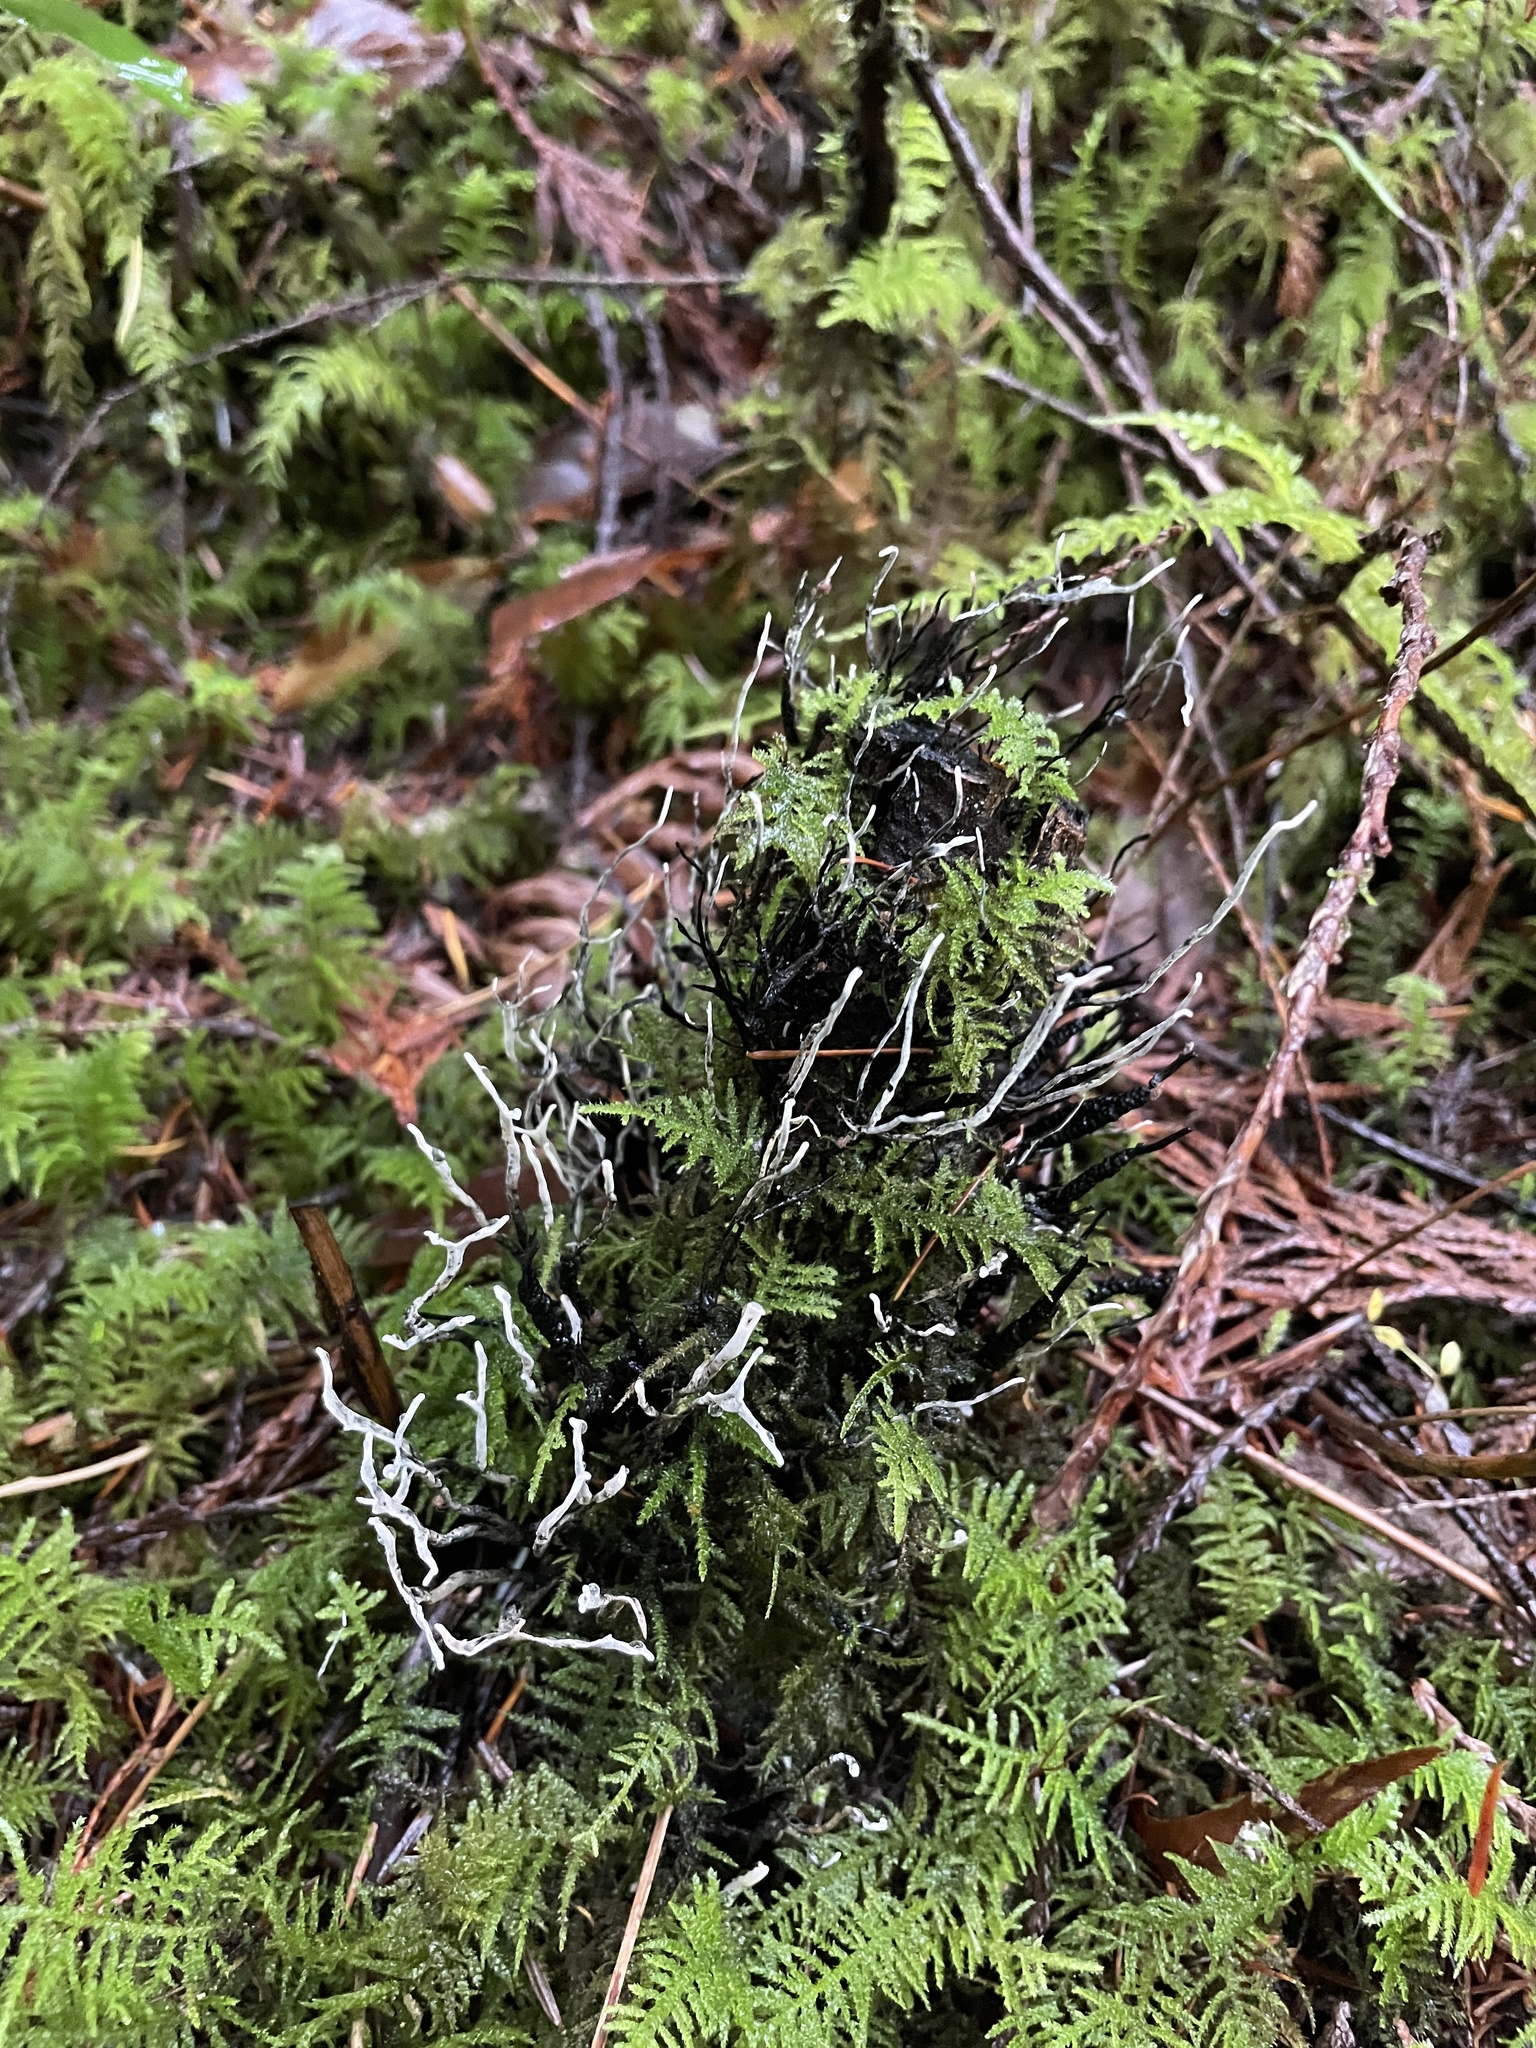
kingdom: Fungi
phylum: Ascomycota
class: Sordariomycetes
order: Xylariales
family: Xylariaceae
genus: Xylaria
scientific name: Xylaria hypoxylon
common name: Candle-snuff fungus
